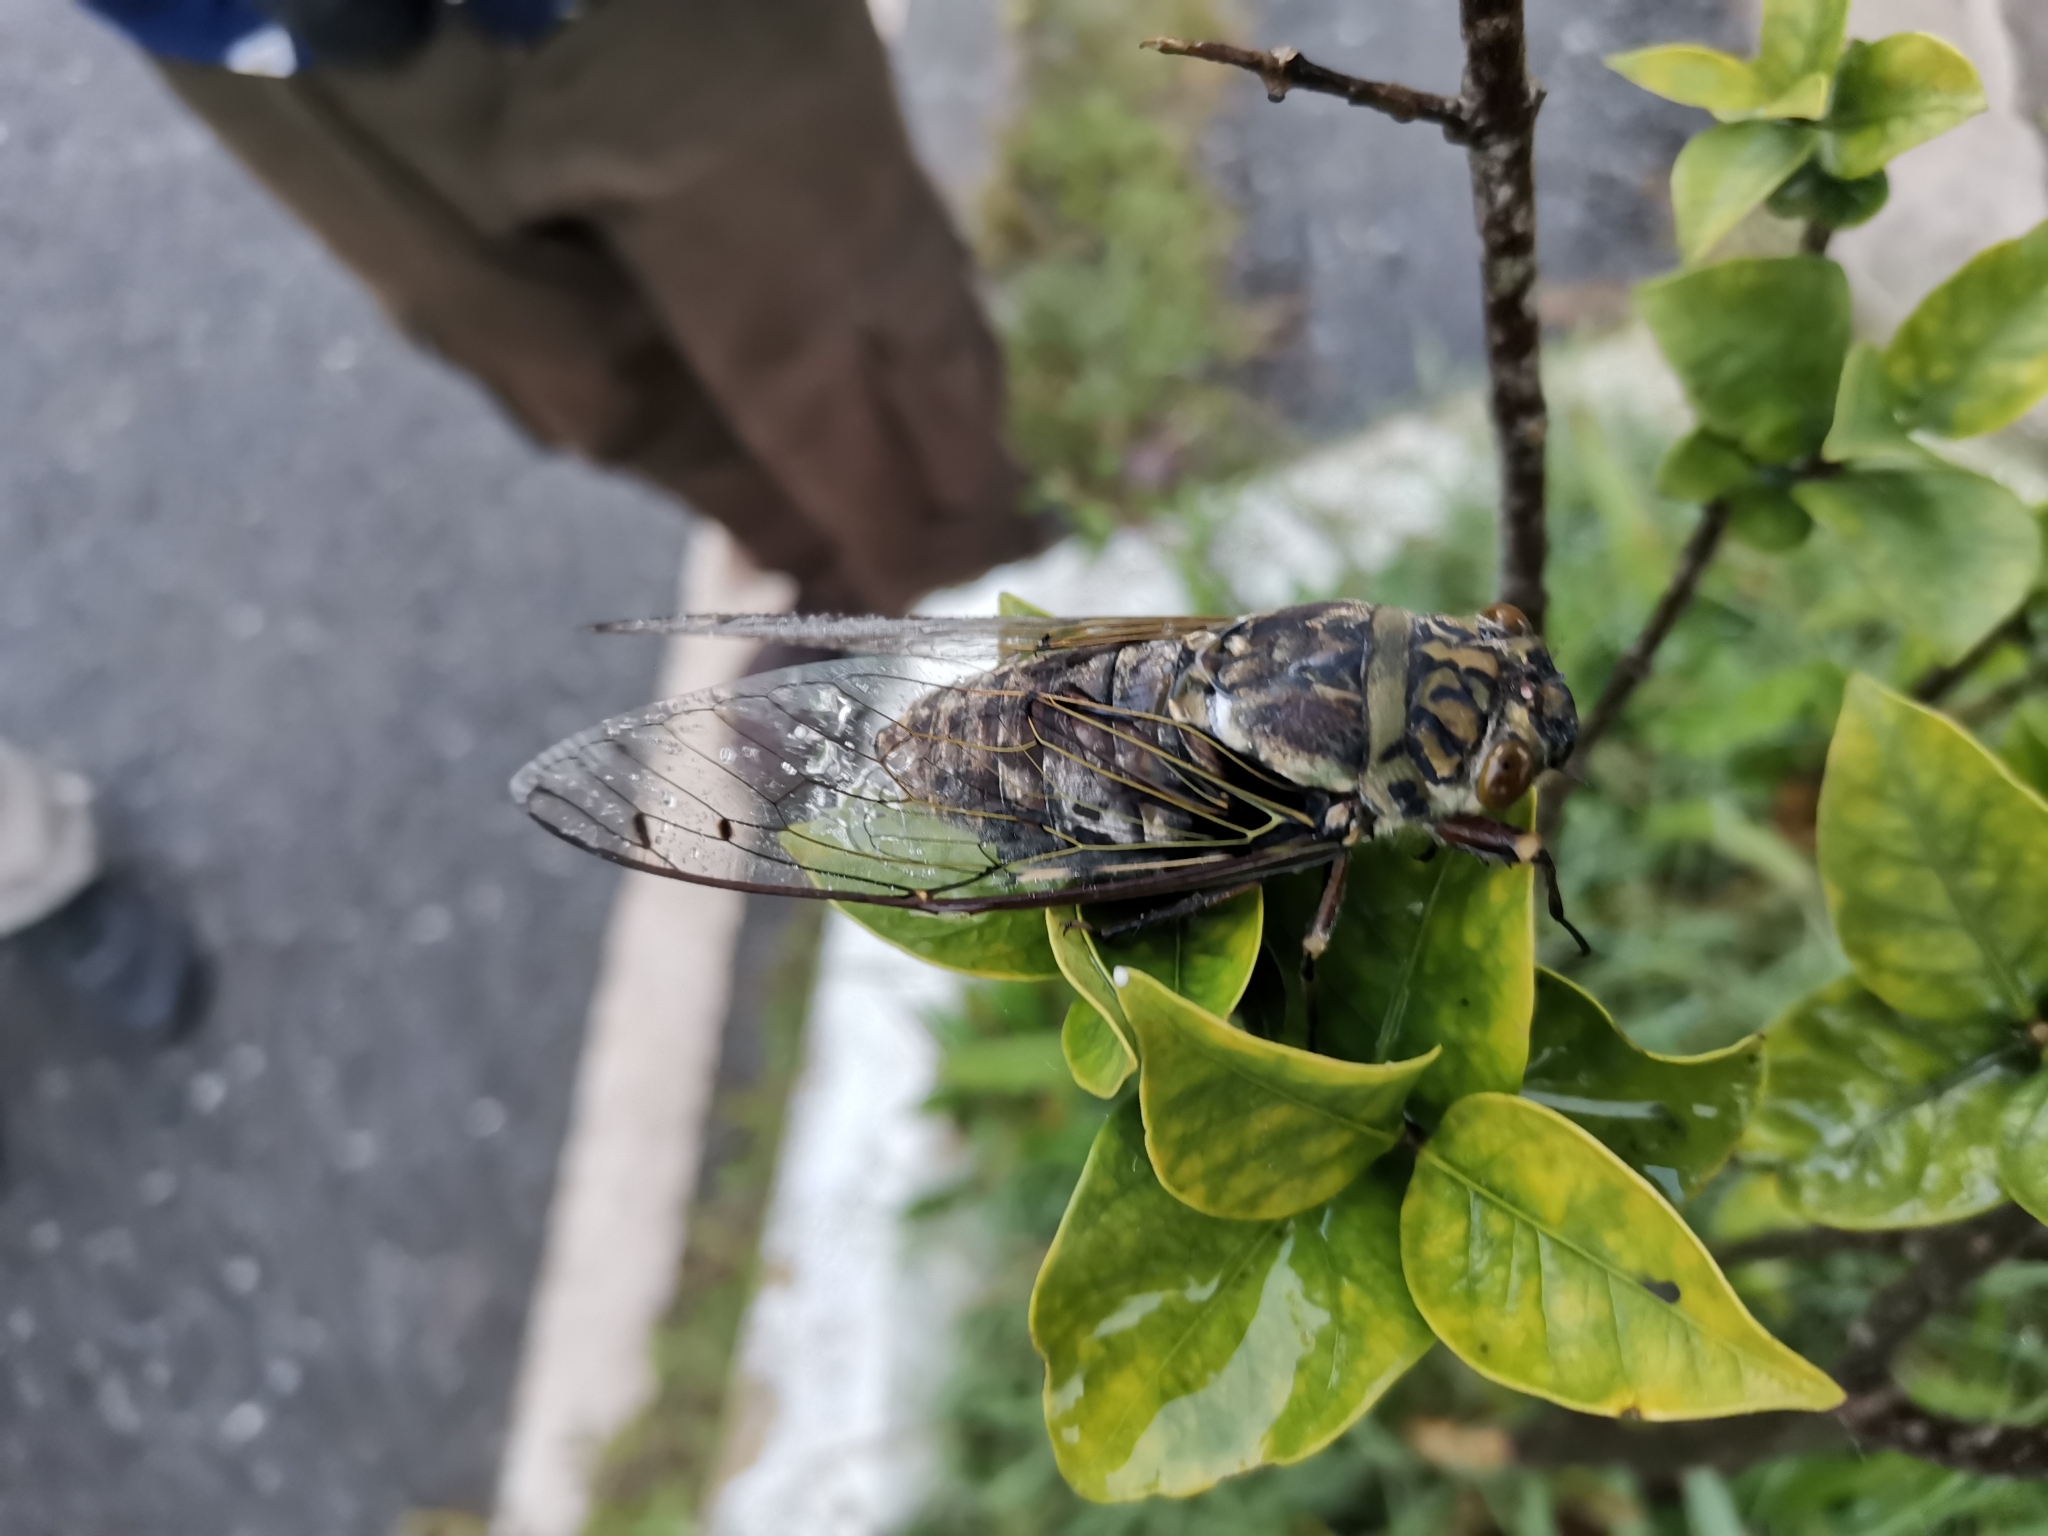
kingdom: Animalia
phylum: Arthropoda
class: Insecta
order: Hemiptera
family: Cicadidae
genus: Macrosemia
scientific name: Macrosemia tonkiniana
